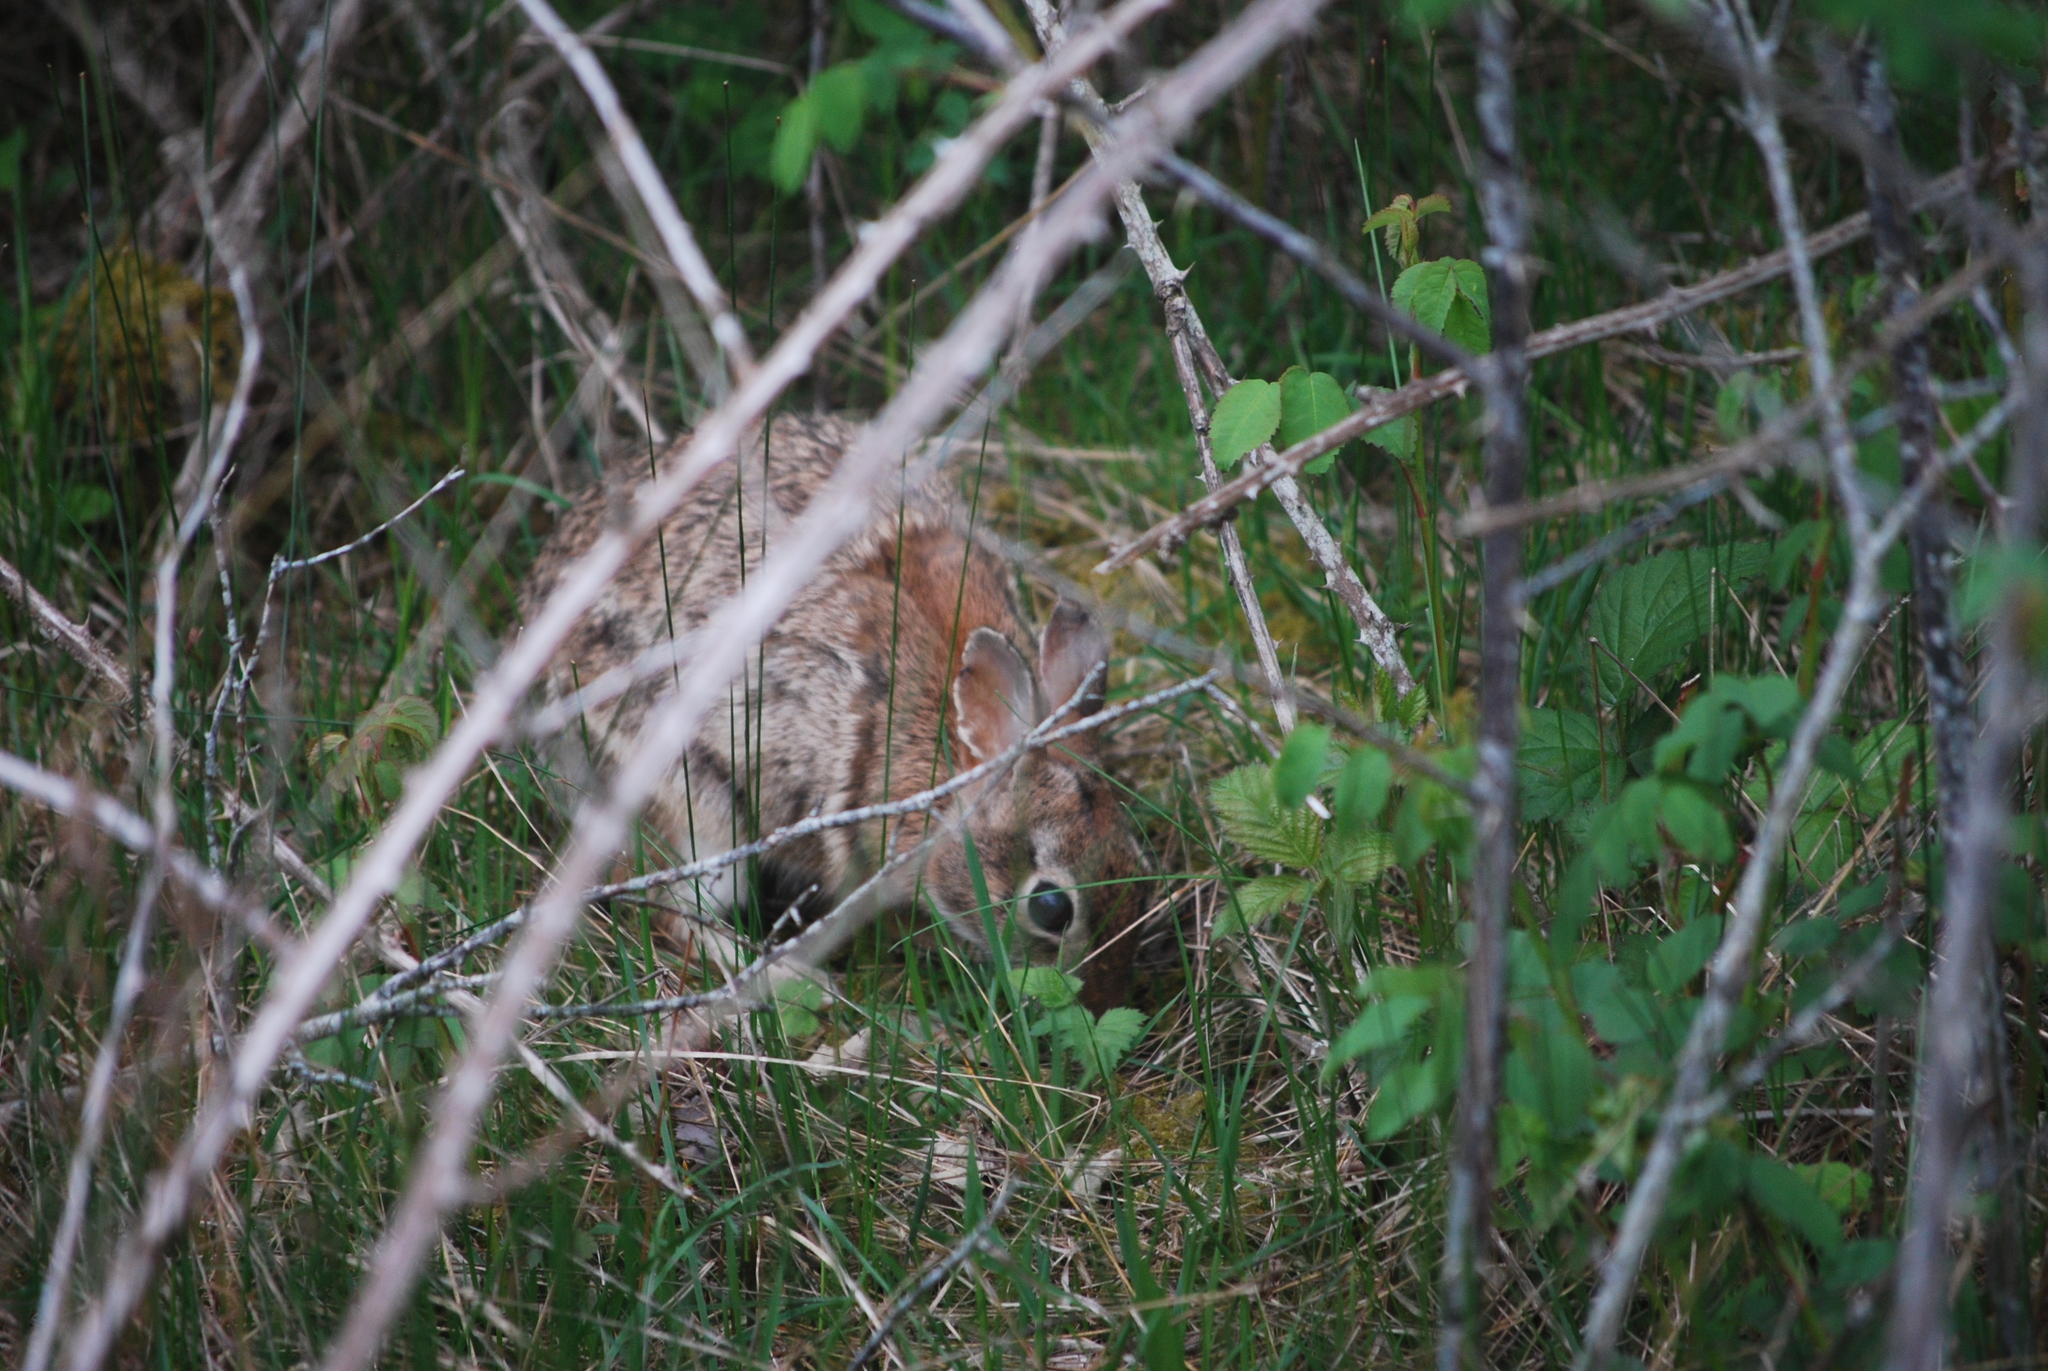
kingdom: Animalia
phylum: Chordata
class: Mammalia
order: Lagomorpha
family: Leporidae
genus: Sylvilagus
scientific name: Sylvilagus floridanus
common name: Eastern cottontail
